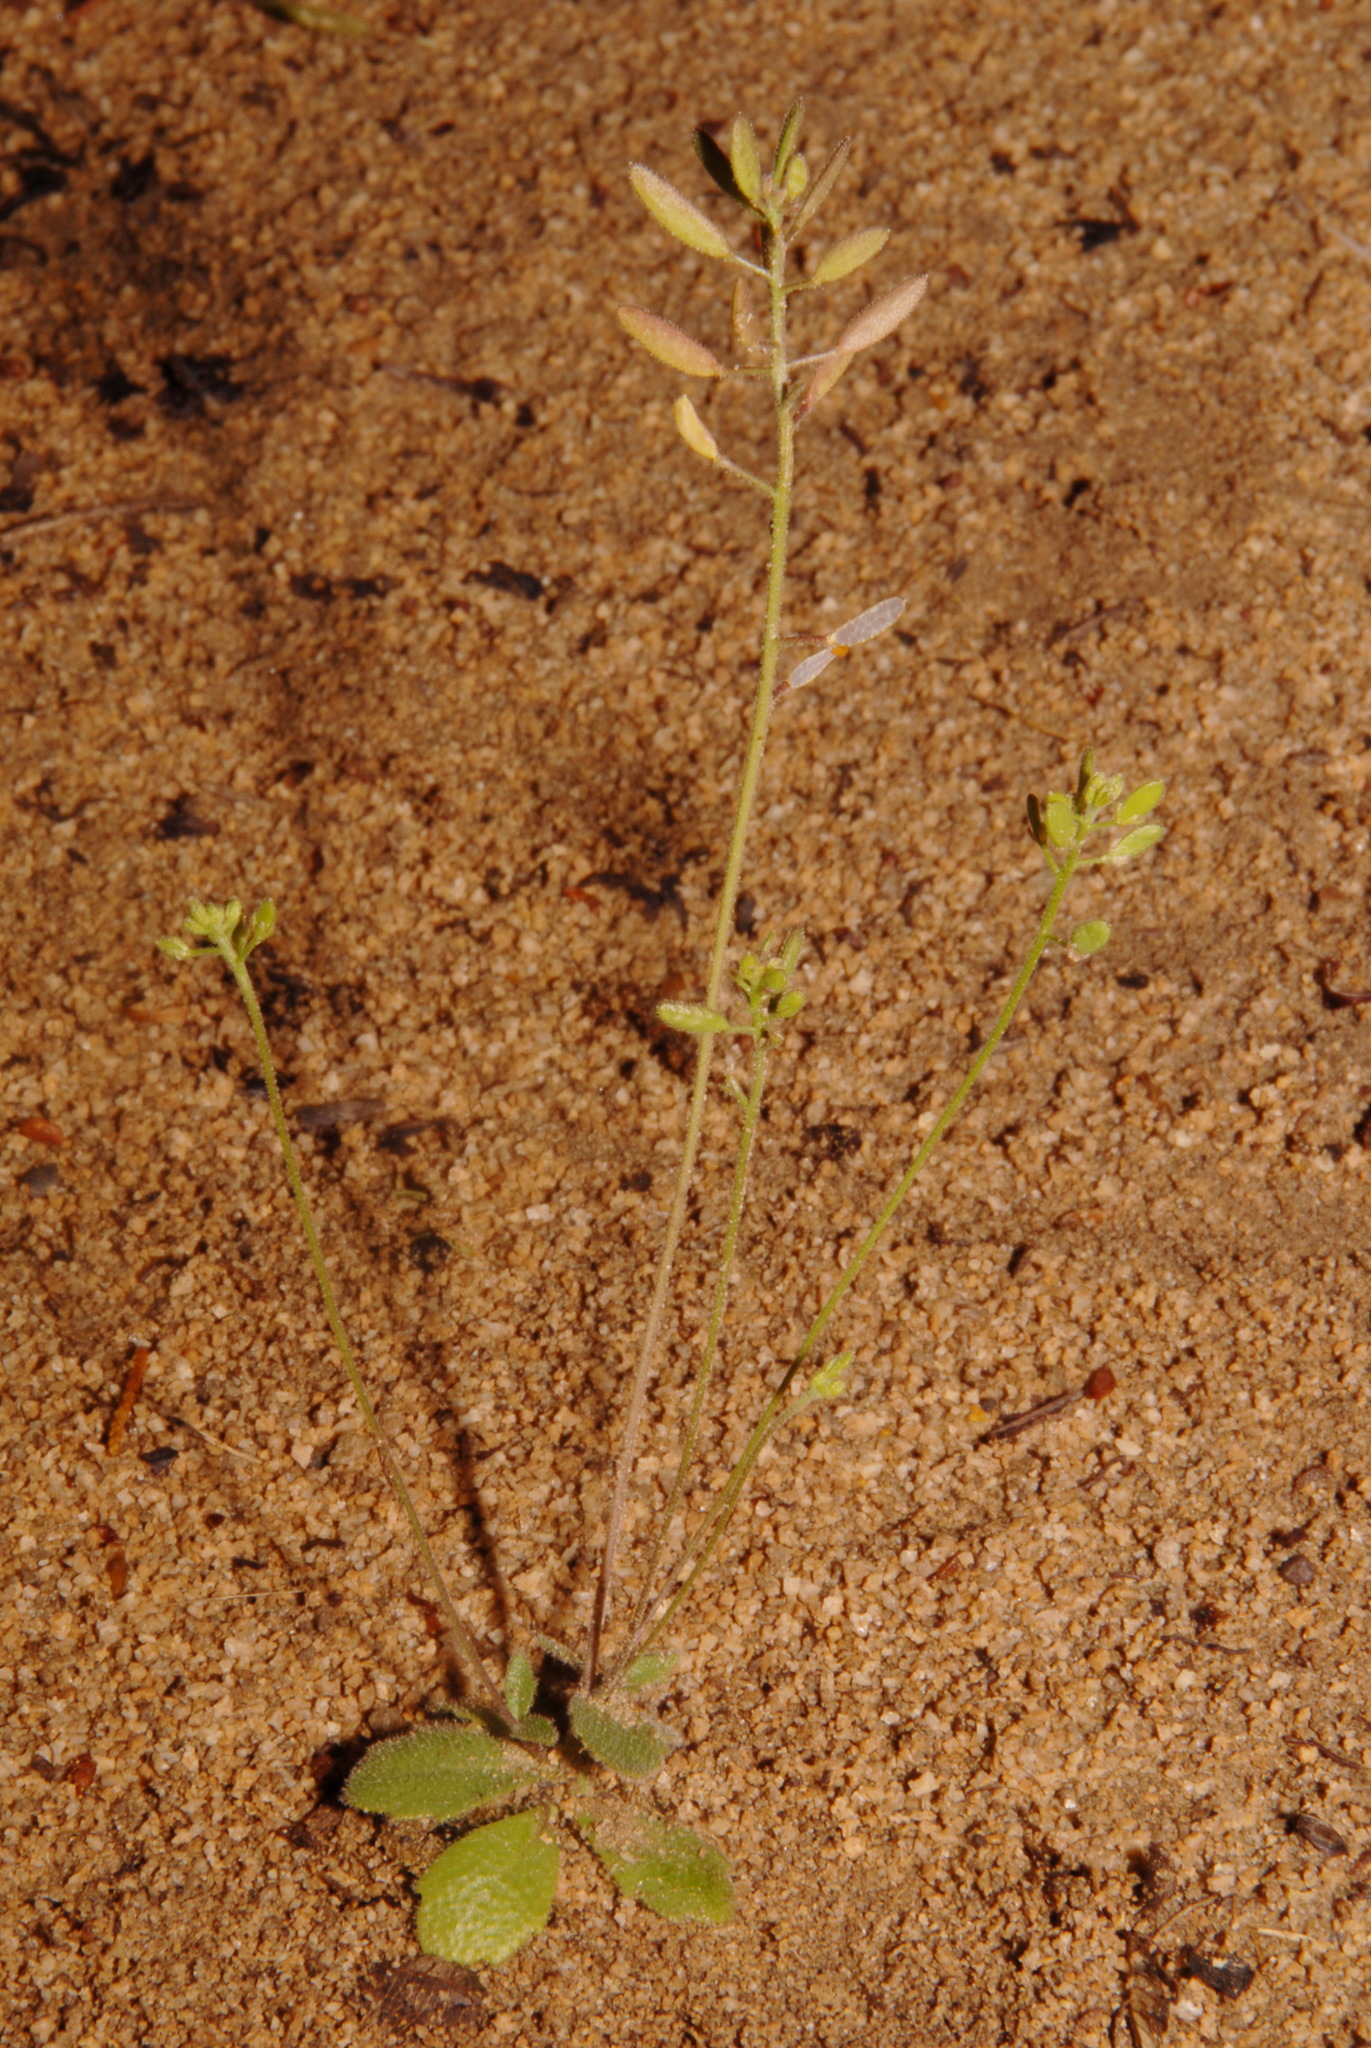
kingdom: Plantae
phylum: Tracheophyta
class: Magnoliopsida
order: Brassicales
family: Brassicaceae
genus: Tomostima
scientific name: Tomostima cuneifolia
